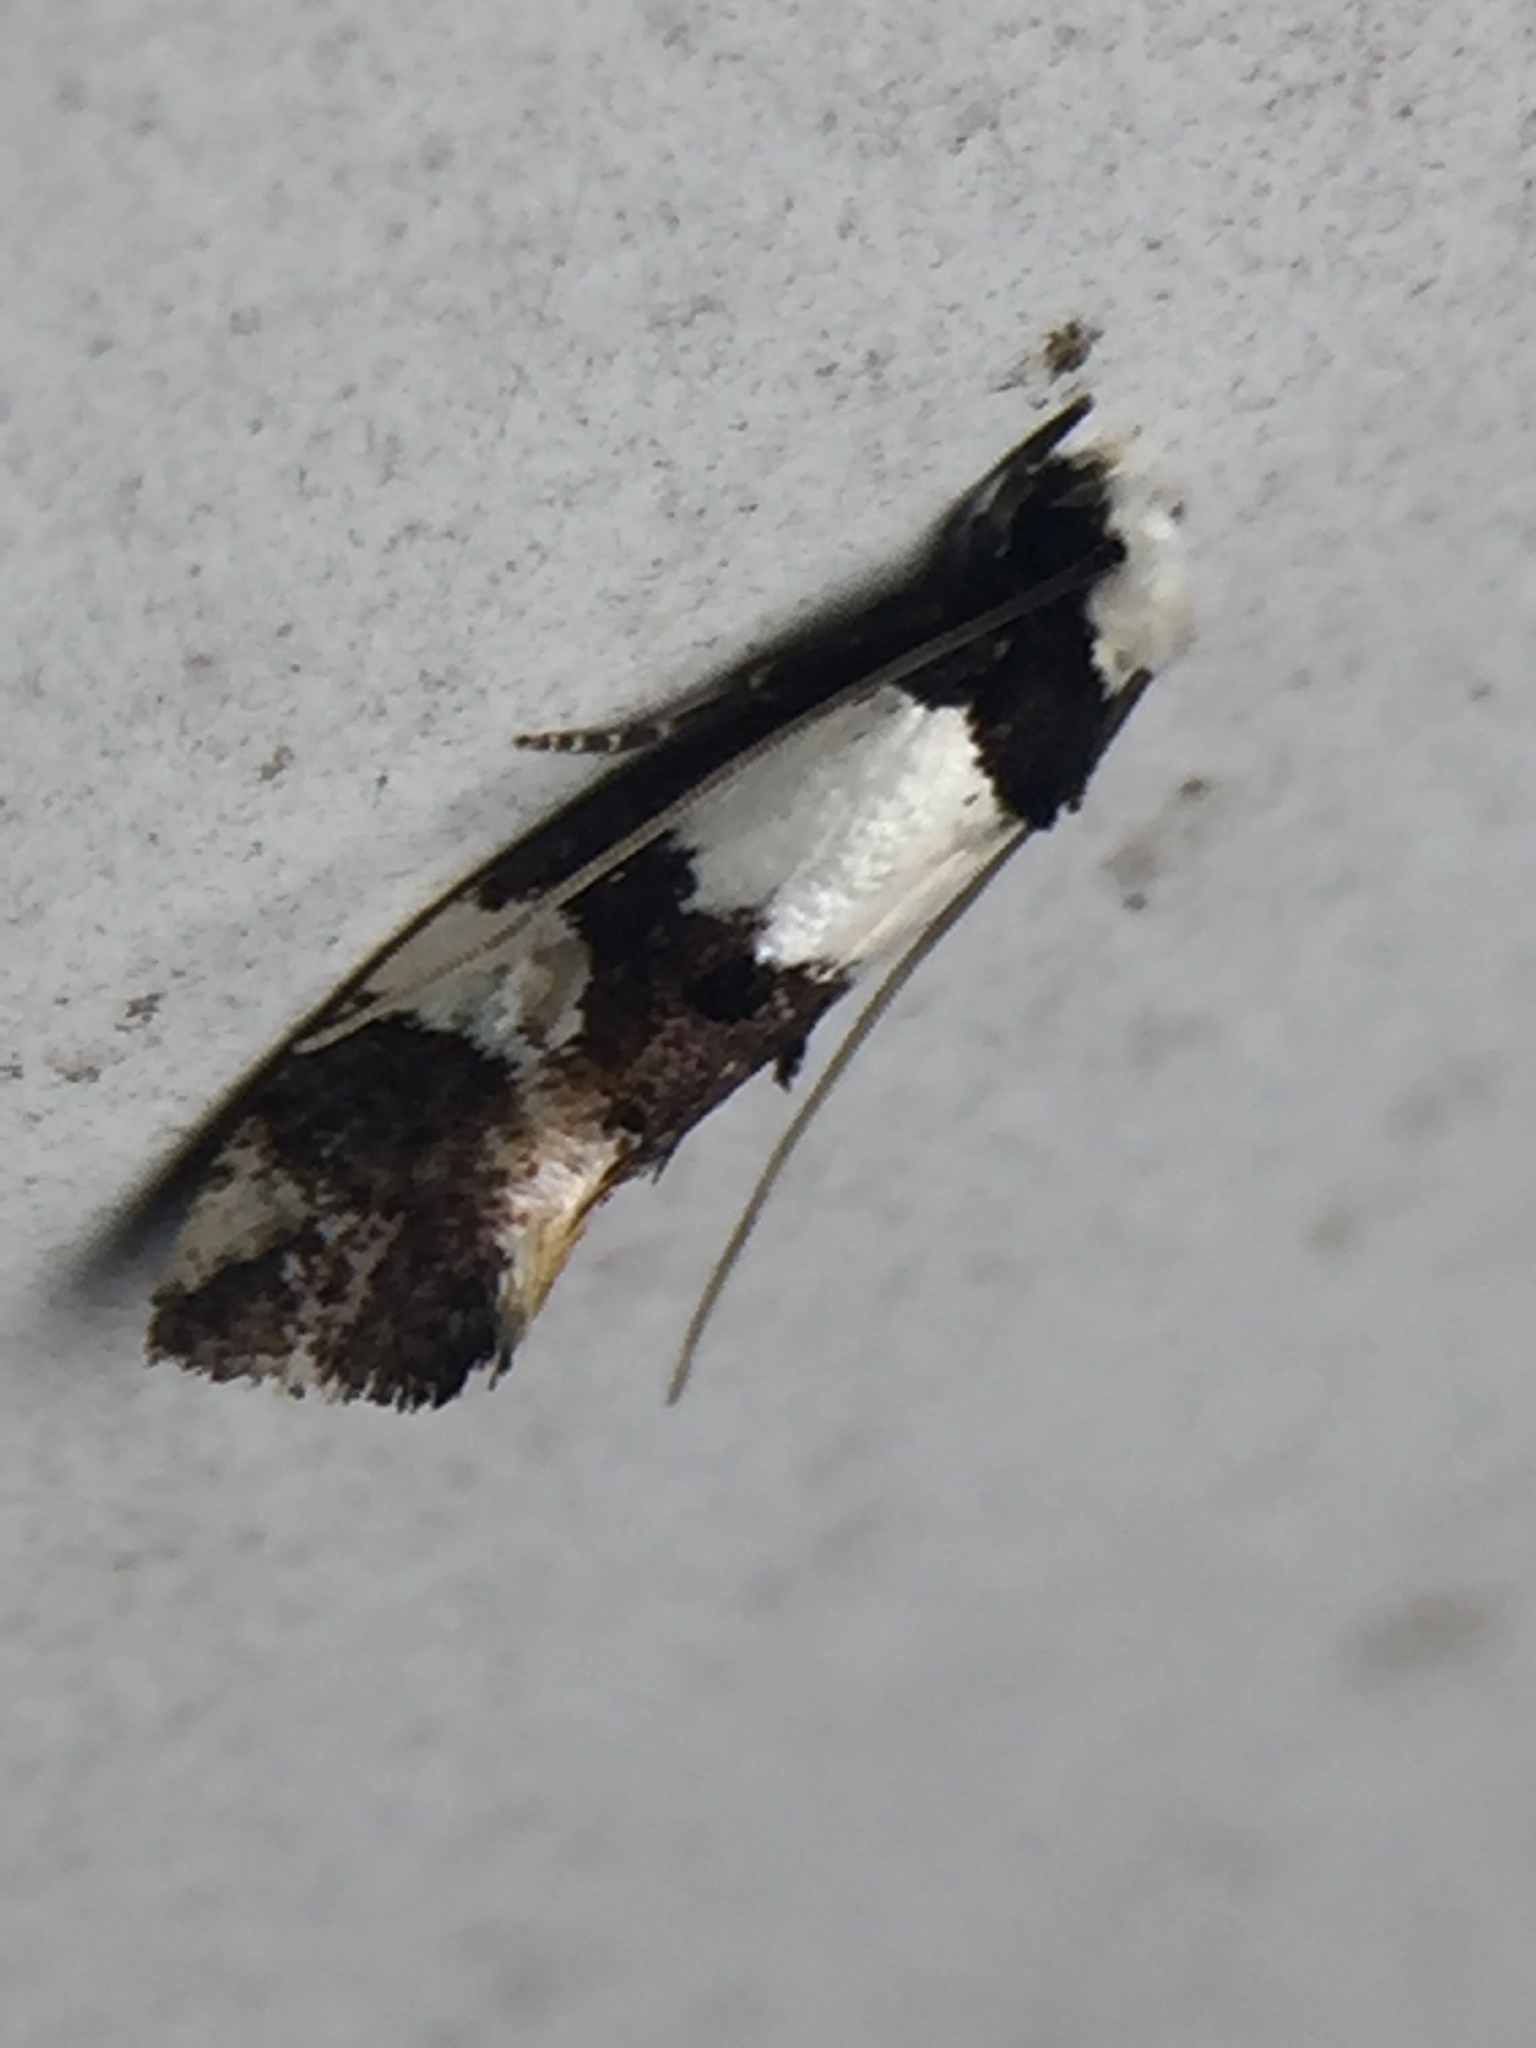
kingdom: Animalia
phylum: Arthropoda
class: Insecta
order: Lepidoptera
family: Tineidae
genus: Monopis
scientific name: Monopis icterogastra
